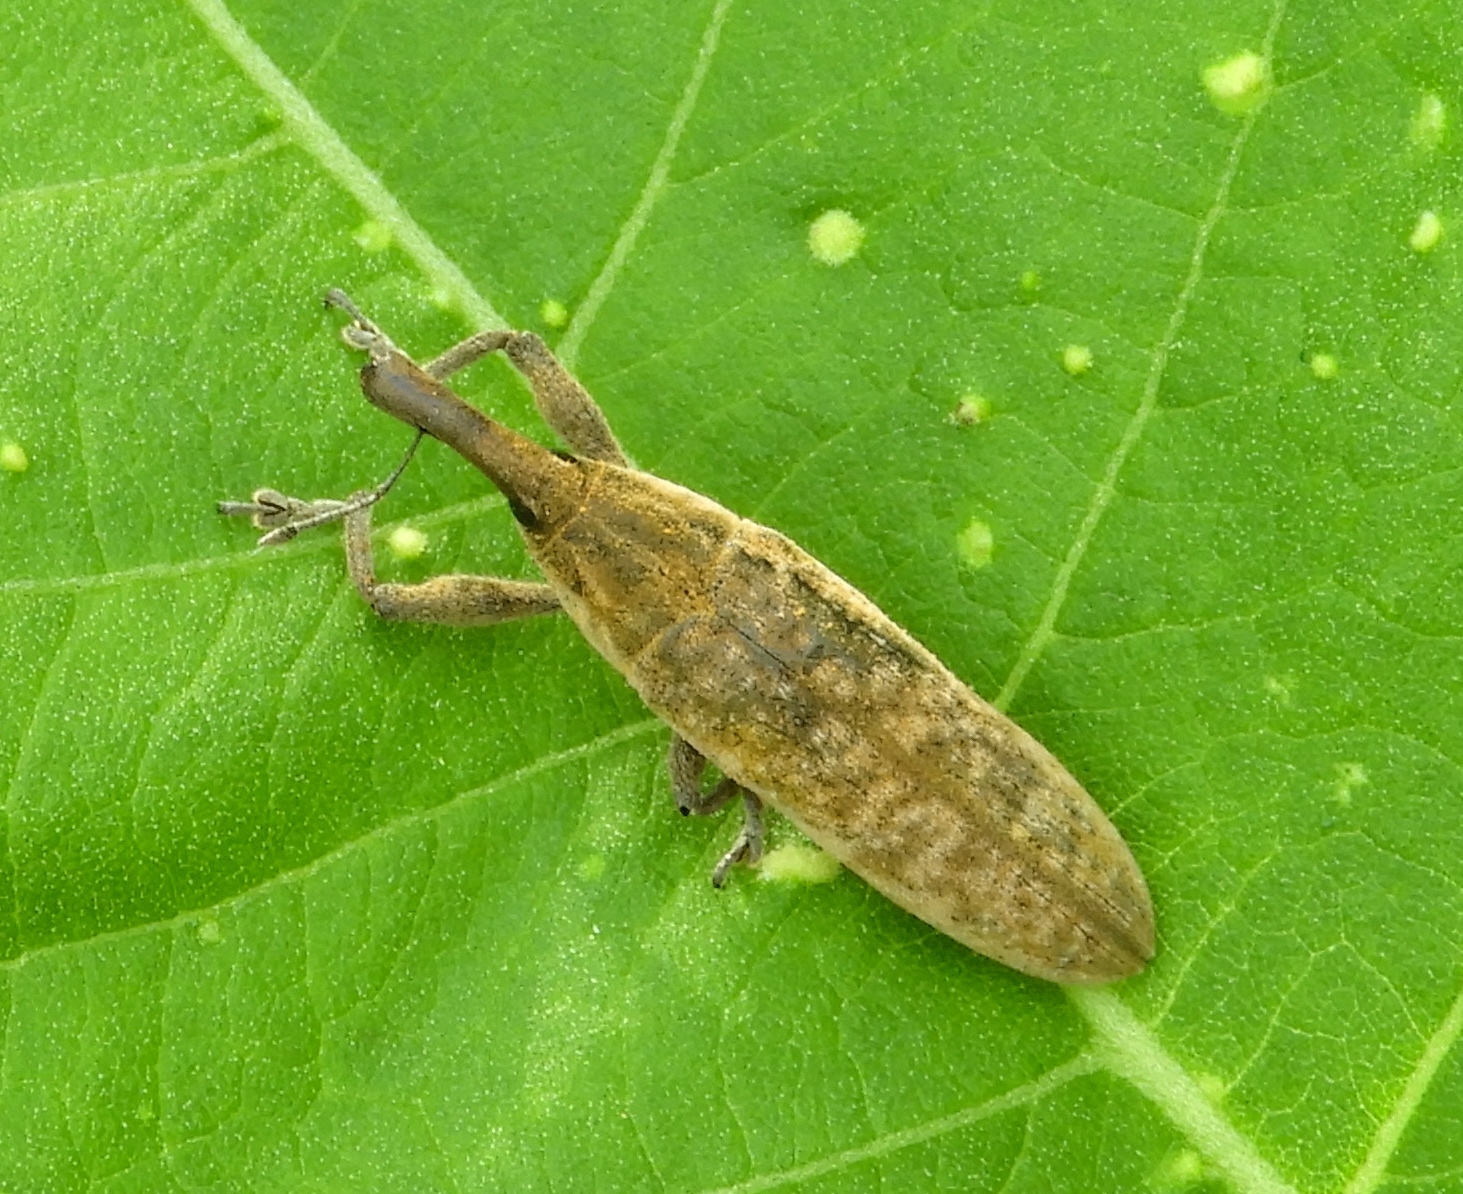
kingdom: Animalia
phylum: Arthropoda
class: Insecta
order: Coleoptera
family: Curculionidae
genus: Lixus
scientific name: Lixus
